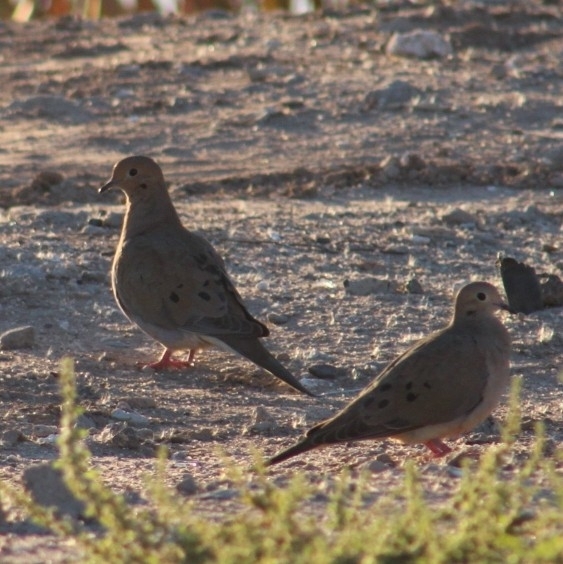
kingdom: Animalia
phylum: Chordata
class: Aves
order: Columbiformes
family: Columbidae
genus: Zenaida
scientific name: Zenaida macroura
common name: Mourning dove
